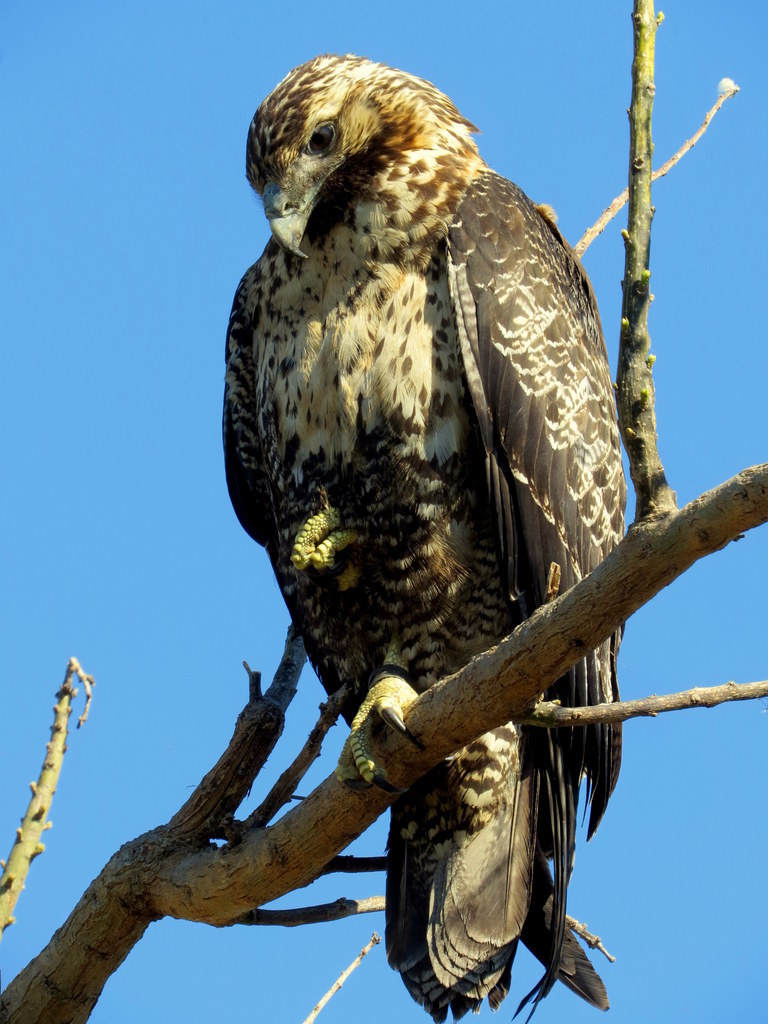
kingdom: Animalia
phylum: Chordata
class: Aves
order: Accipitriformes
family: Accipitridae
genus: Geranoaetus
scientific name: Geranoaetus melanoleucus
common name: Black-chested buzzard-eagle
